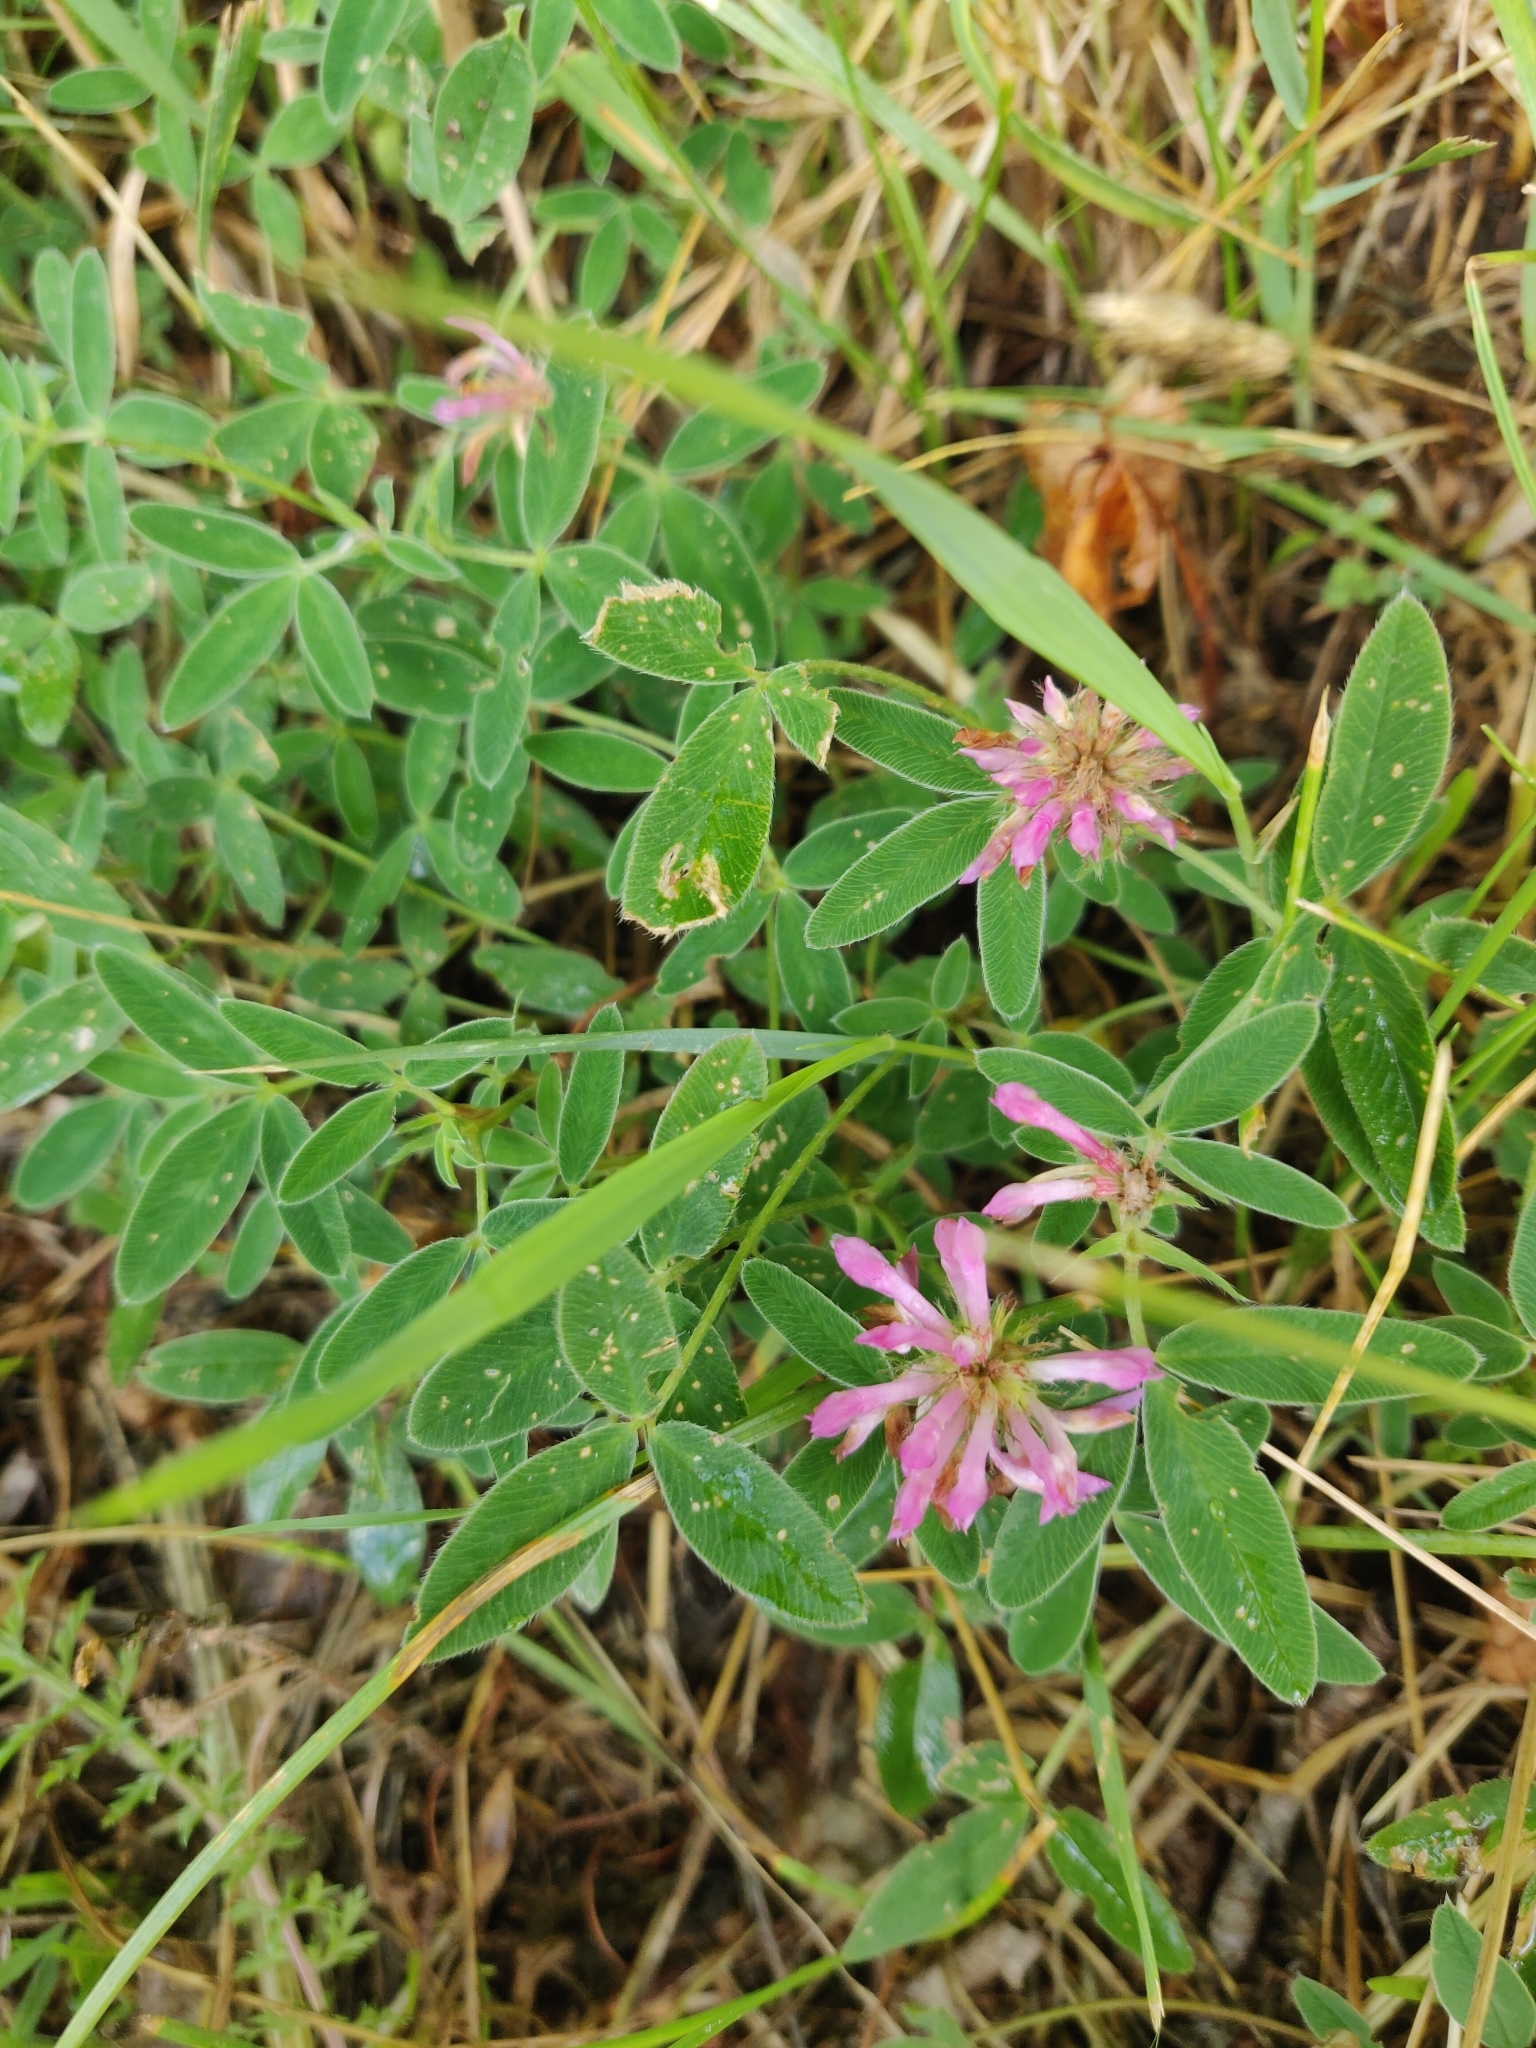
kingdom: Plantae
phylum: Tracheophyta
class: Magnoliopsida
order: Fabales
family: Fabaceae
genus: Trifolium
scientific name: Trifolium medium
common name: Zigzag clover
